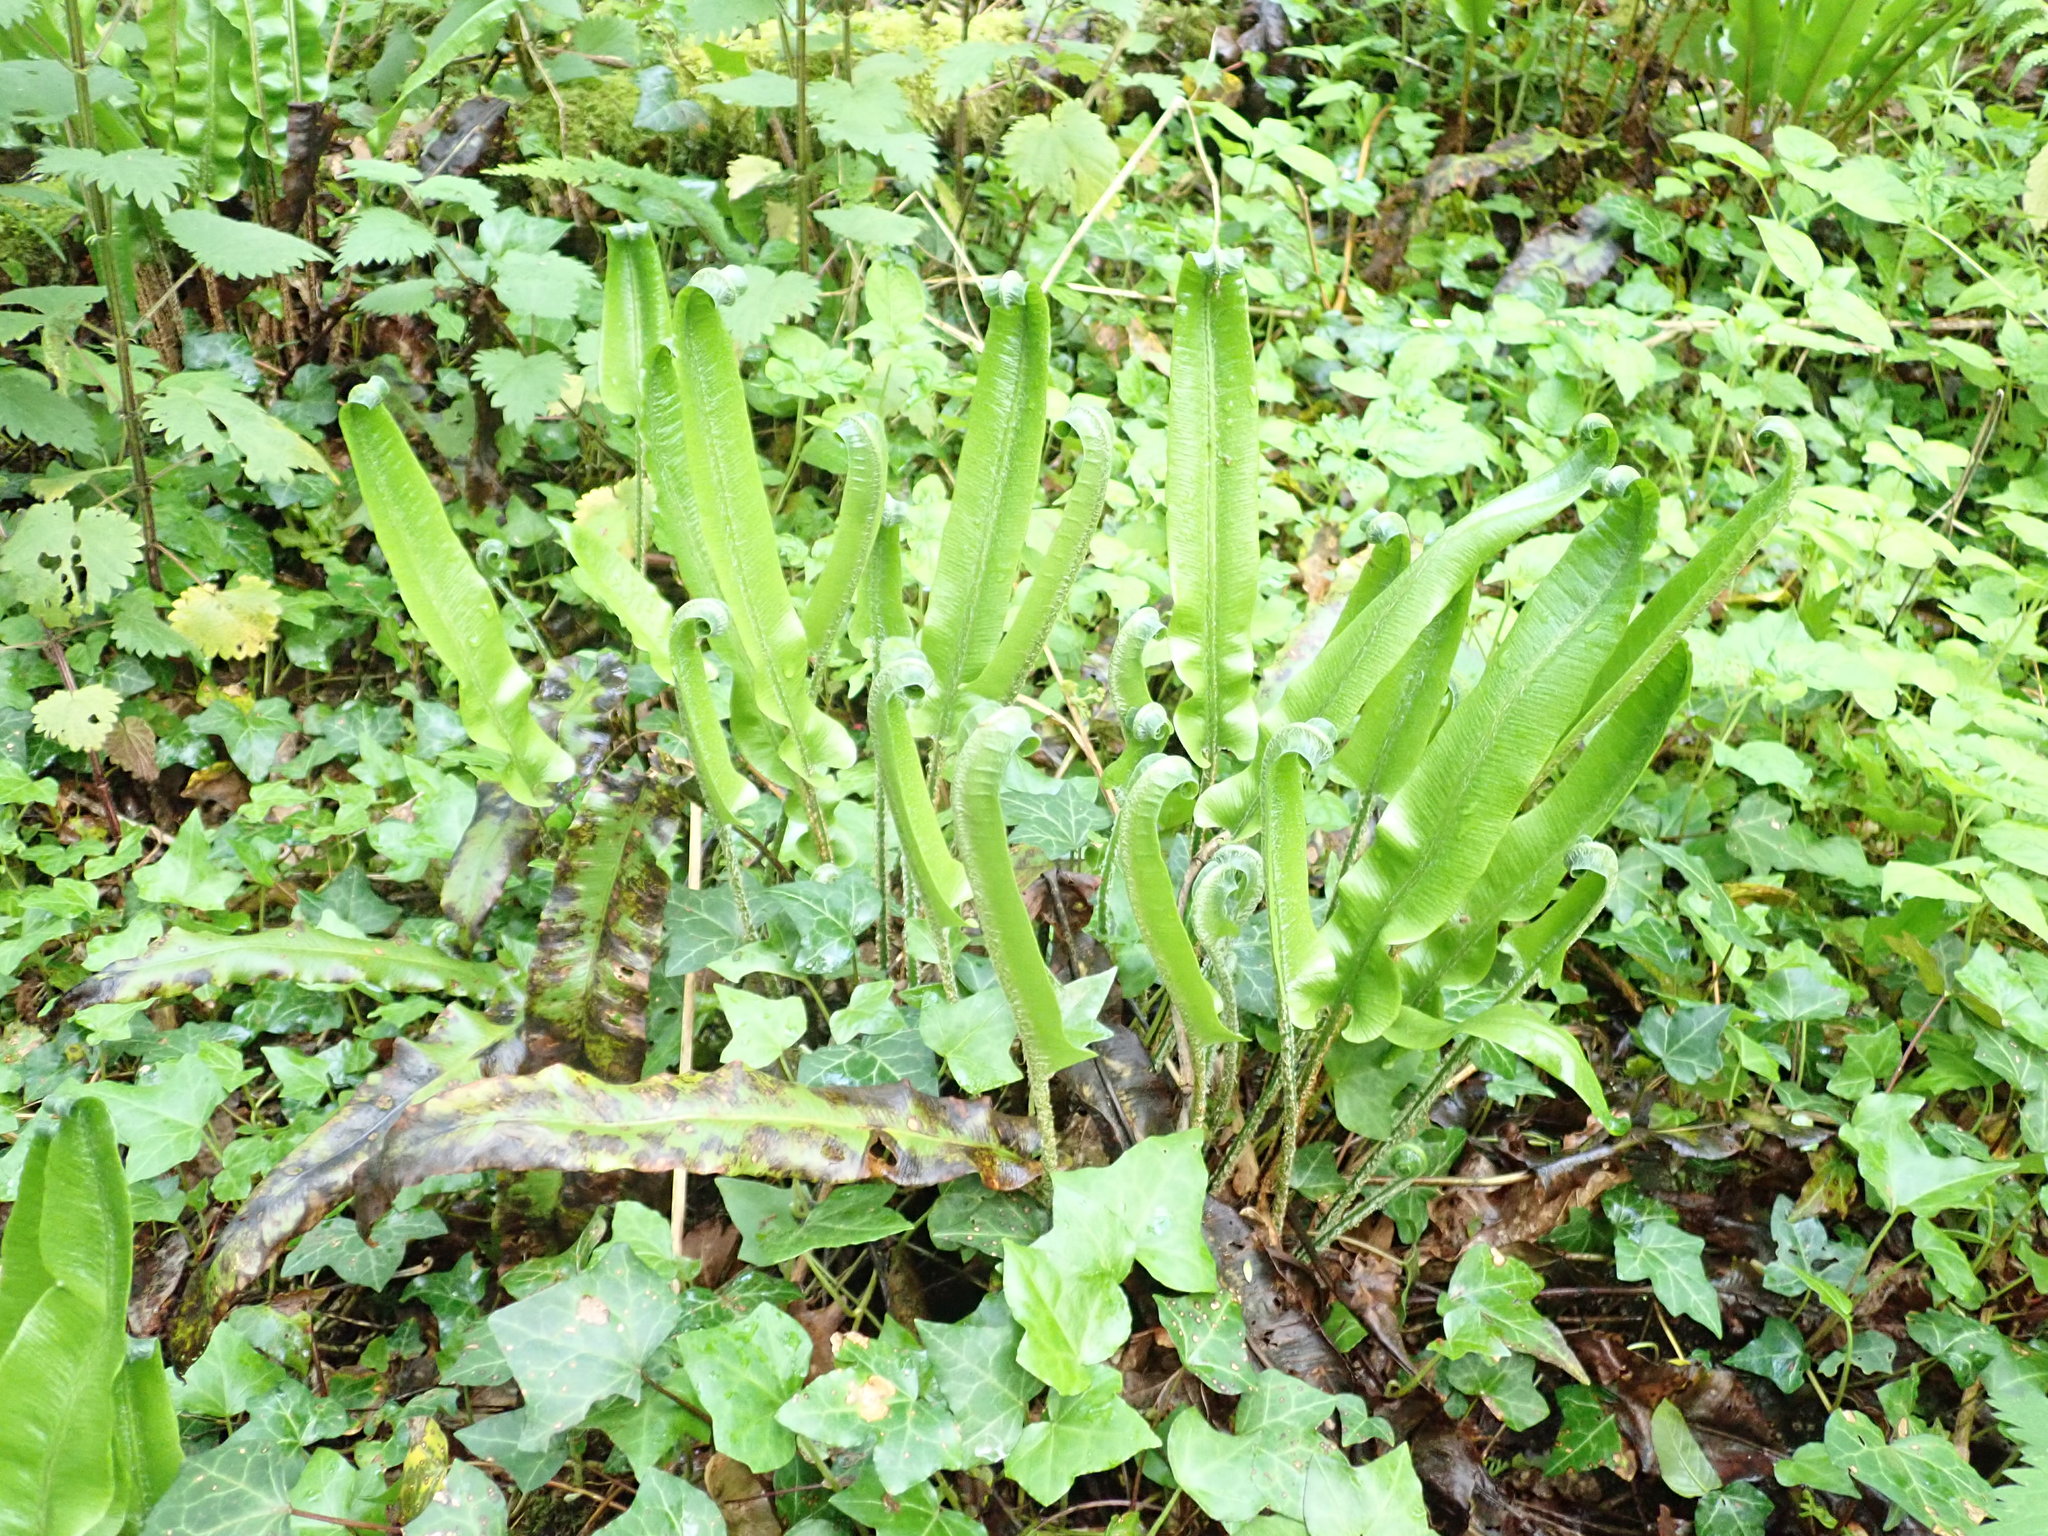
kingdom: Plantae
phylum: Tracheophyta
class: Polypodiopsida
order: Polypodiales
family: Aspleniaceae
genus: Asplenium
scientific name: Asplenium scolopendrium
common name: Hart's-tongue fern
